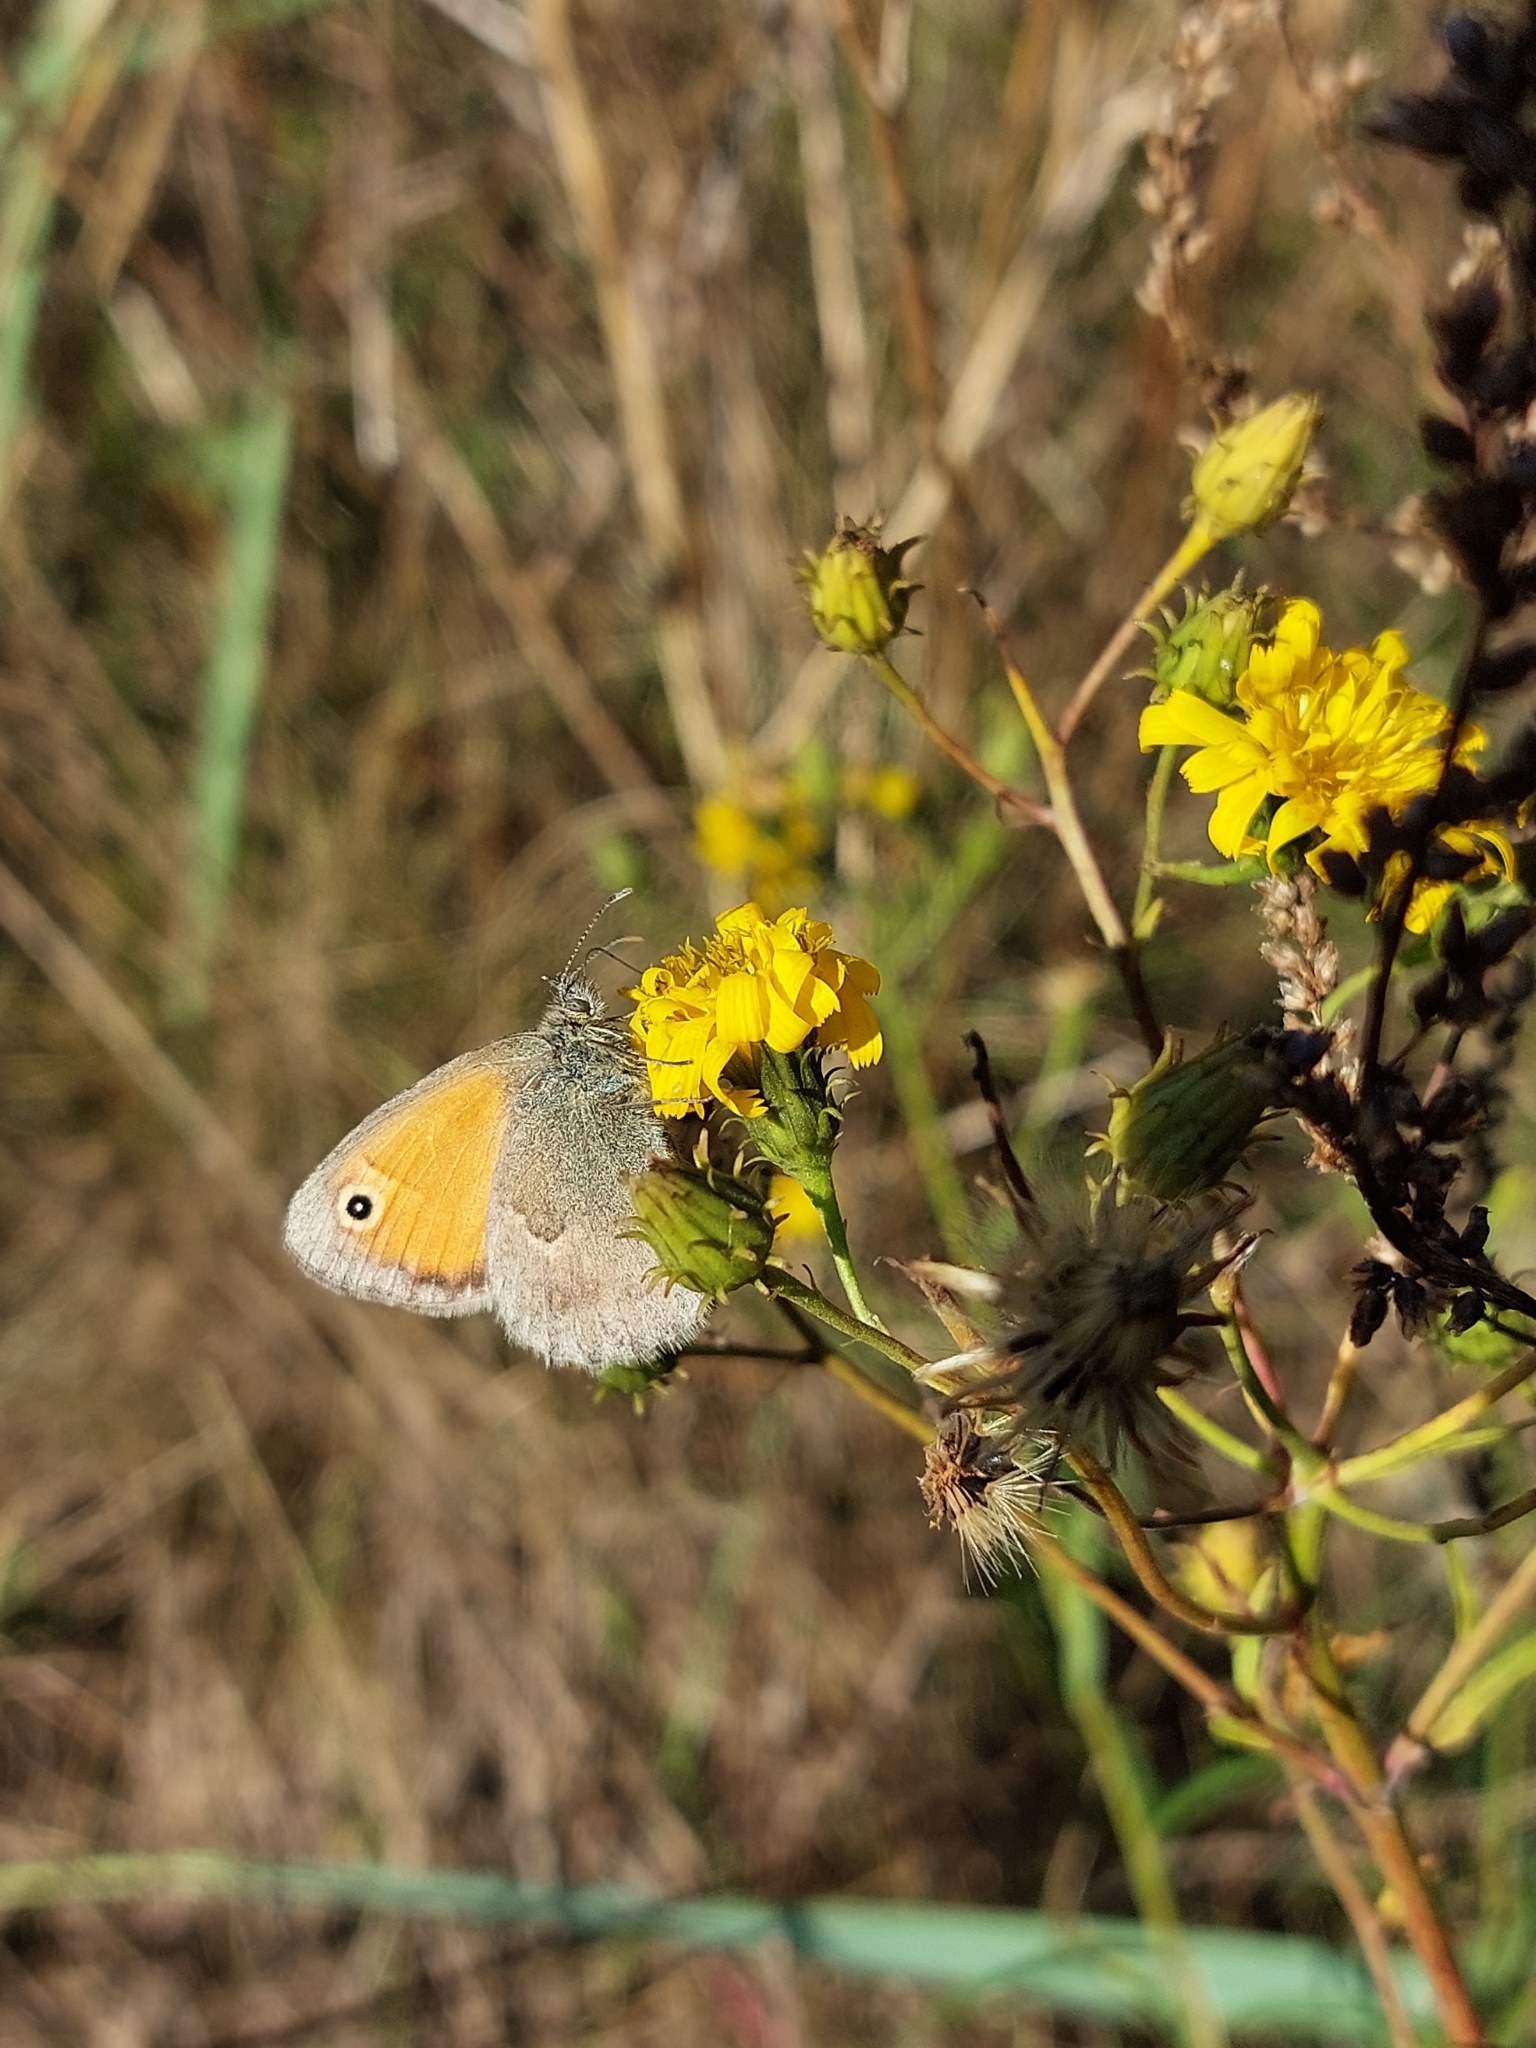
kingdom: Animalia
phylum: Arthropoda
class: Insecta
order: Lepidoptera
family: Nymphalidae
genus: Coenonympha
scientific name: Coenonympha pamphilus
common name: Small heath
